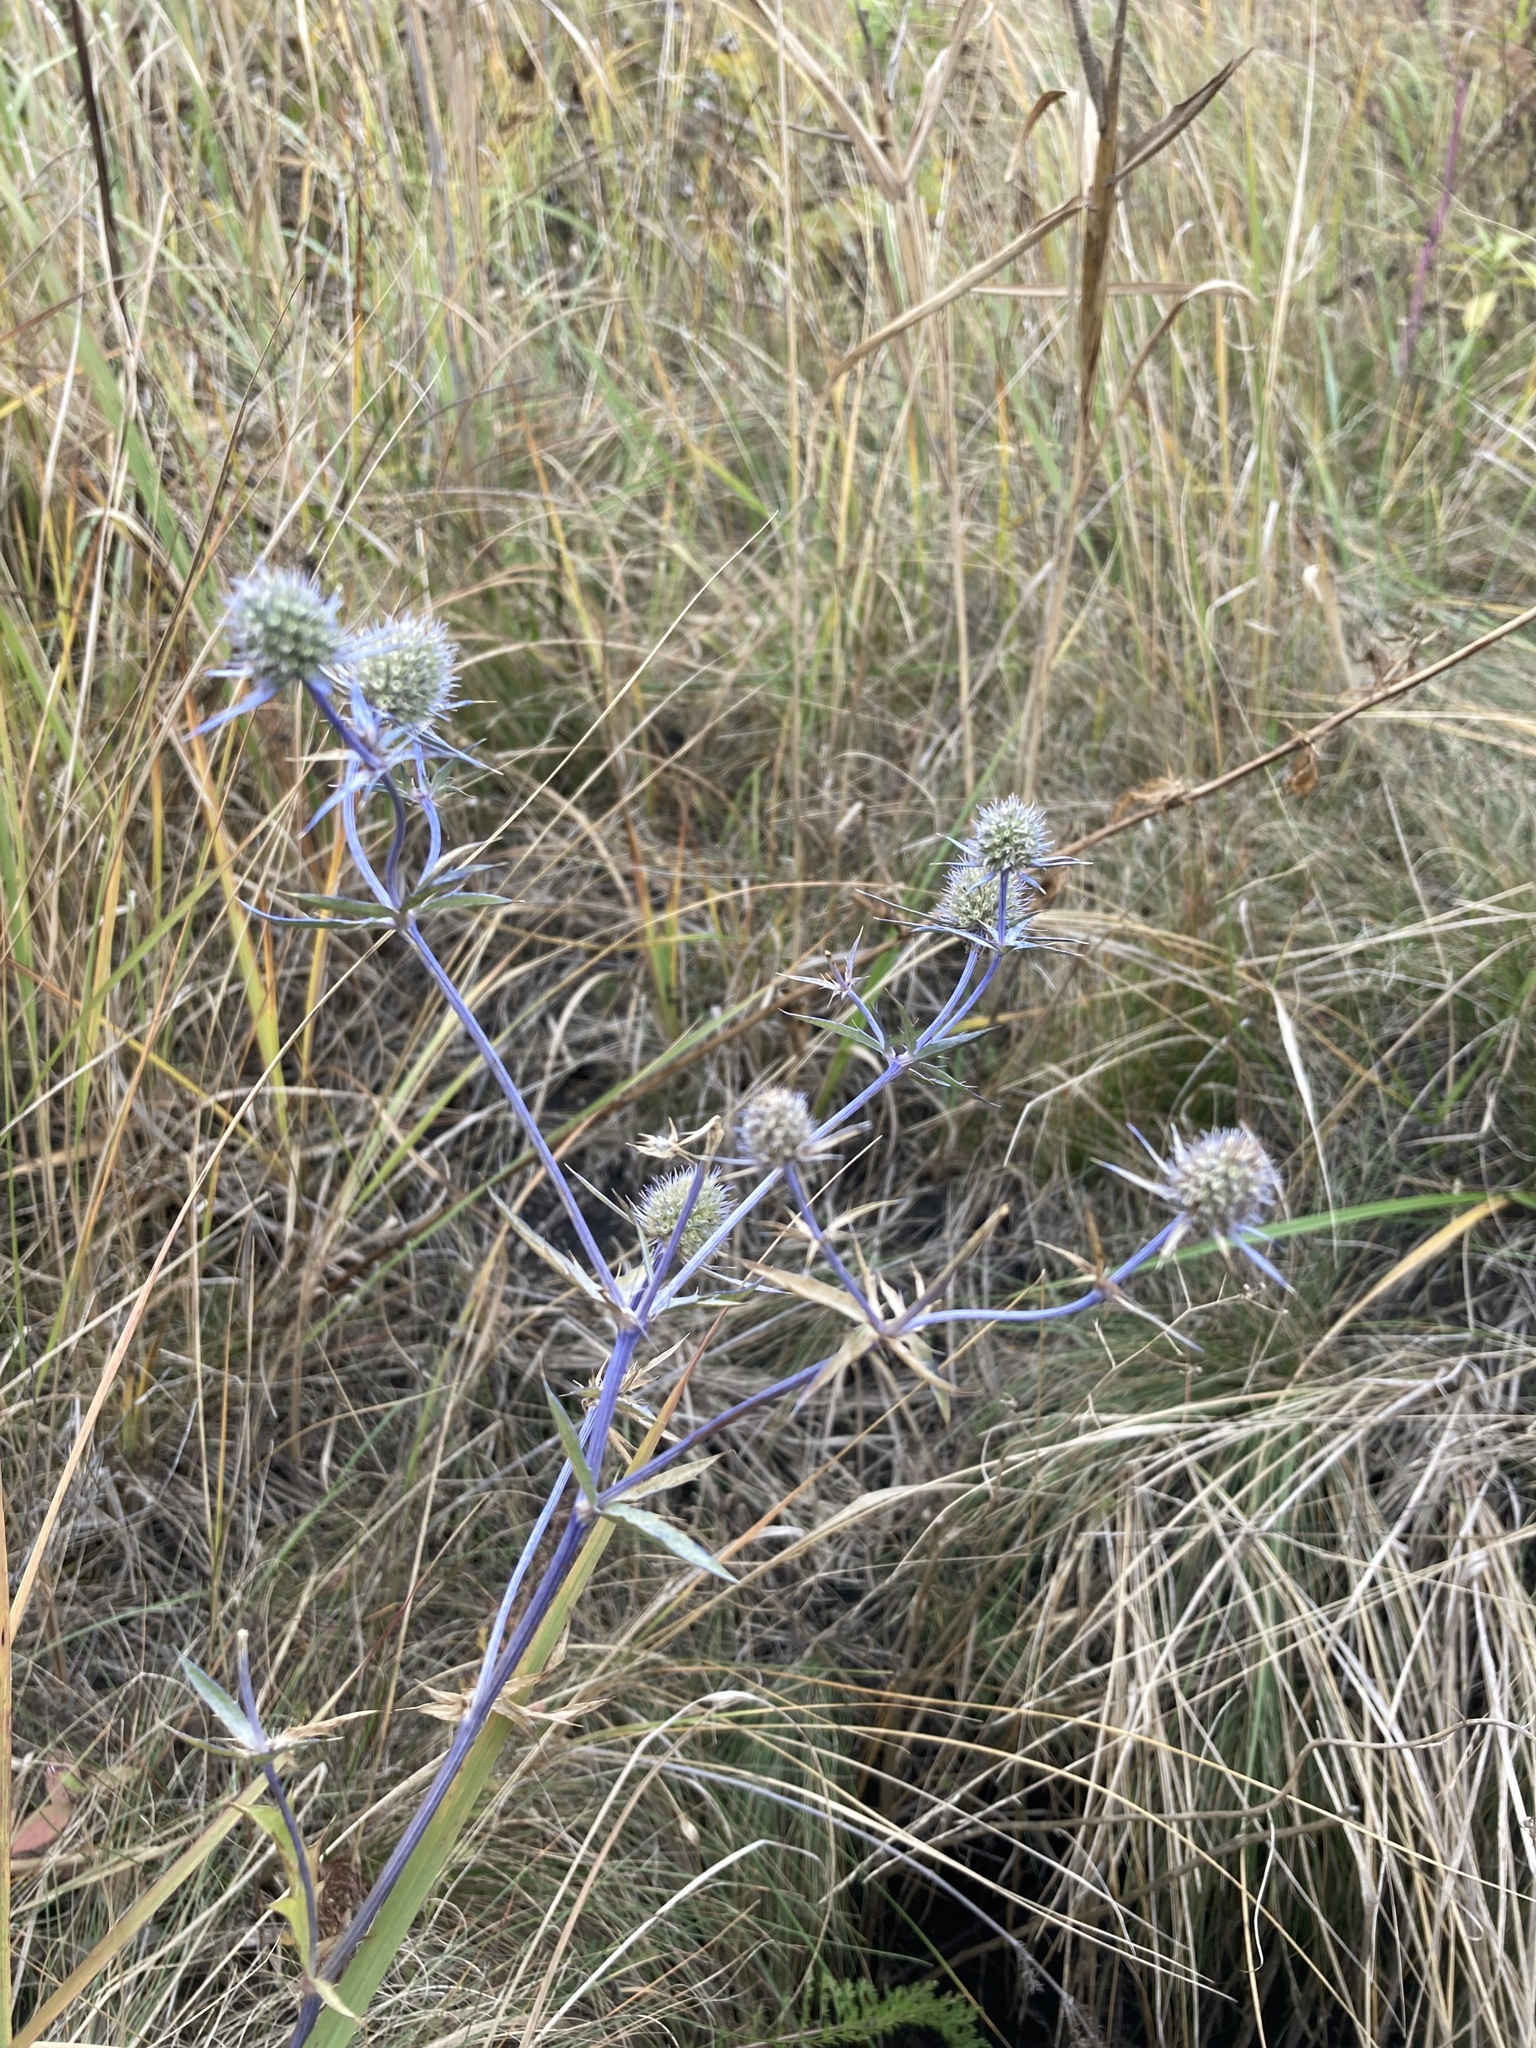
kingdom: Plantae
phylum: Tracheophyta
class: Magnoliopsida
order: Apiales
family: Apiaceae
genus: Eryngium
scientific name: Eryngium planum
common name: Blue eryngo
